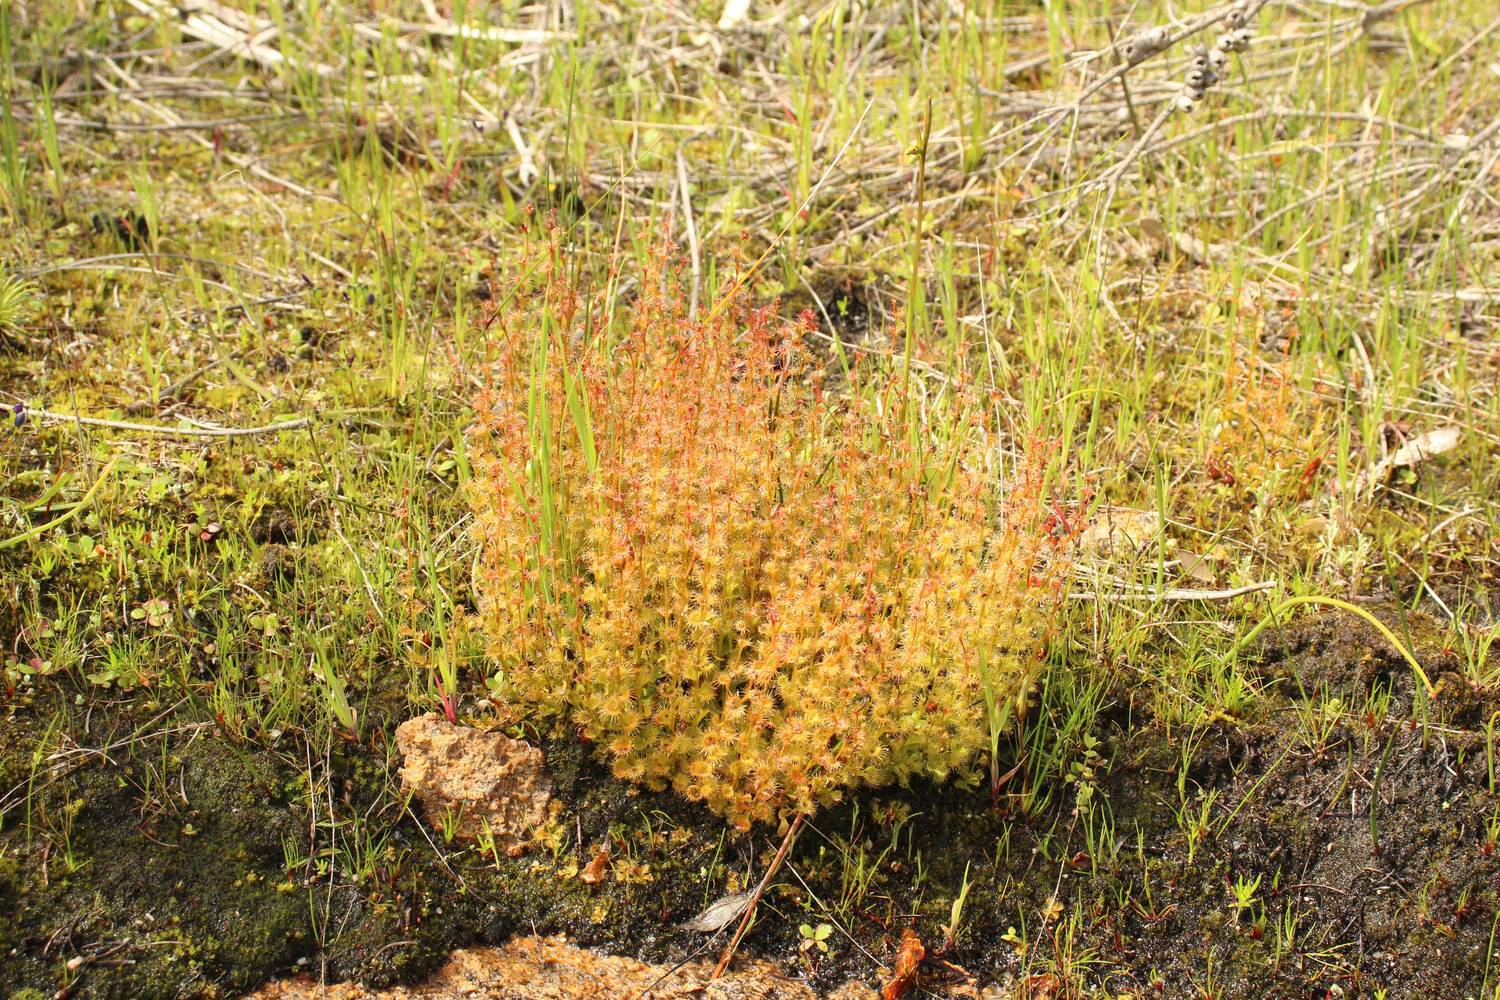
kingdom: Plantae
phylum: Tracheophyta
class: Magnoliopsida
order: Caryophyllales
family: Droseraceae
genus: Drosera
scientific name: Drosera ramellosa
